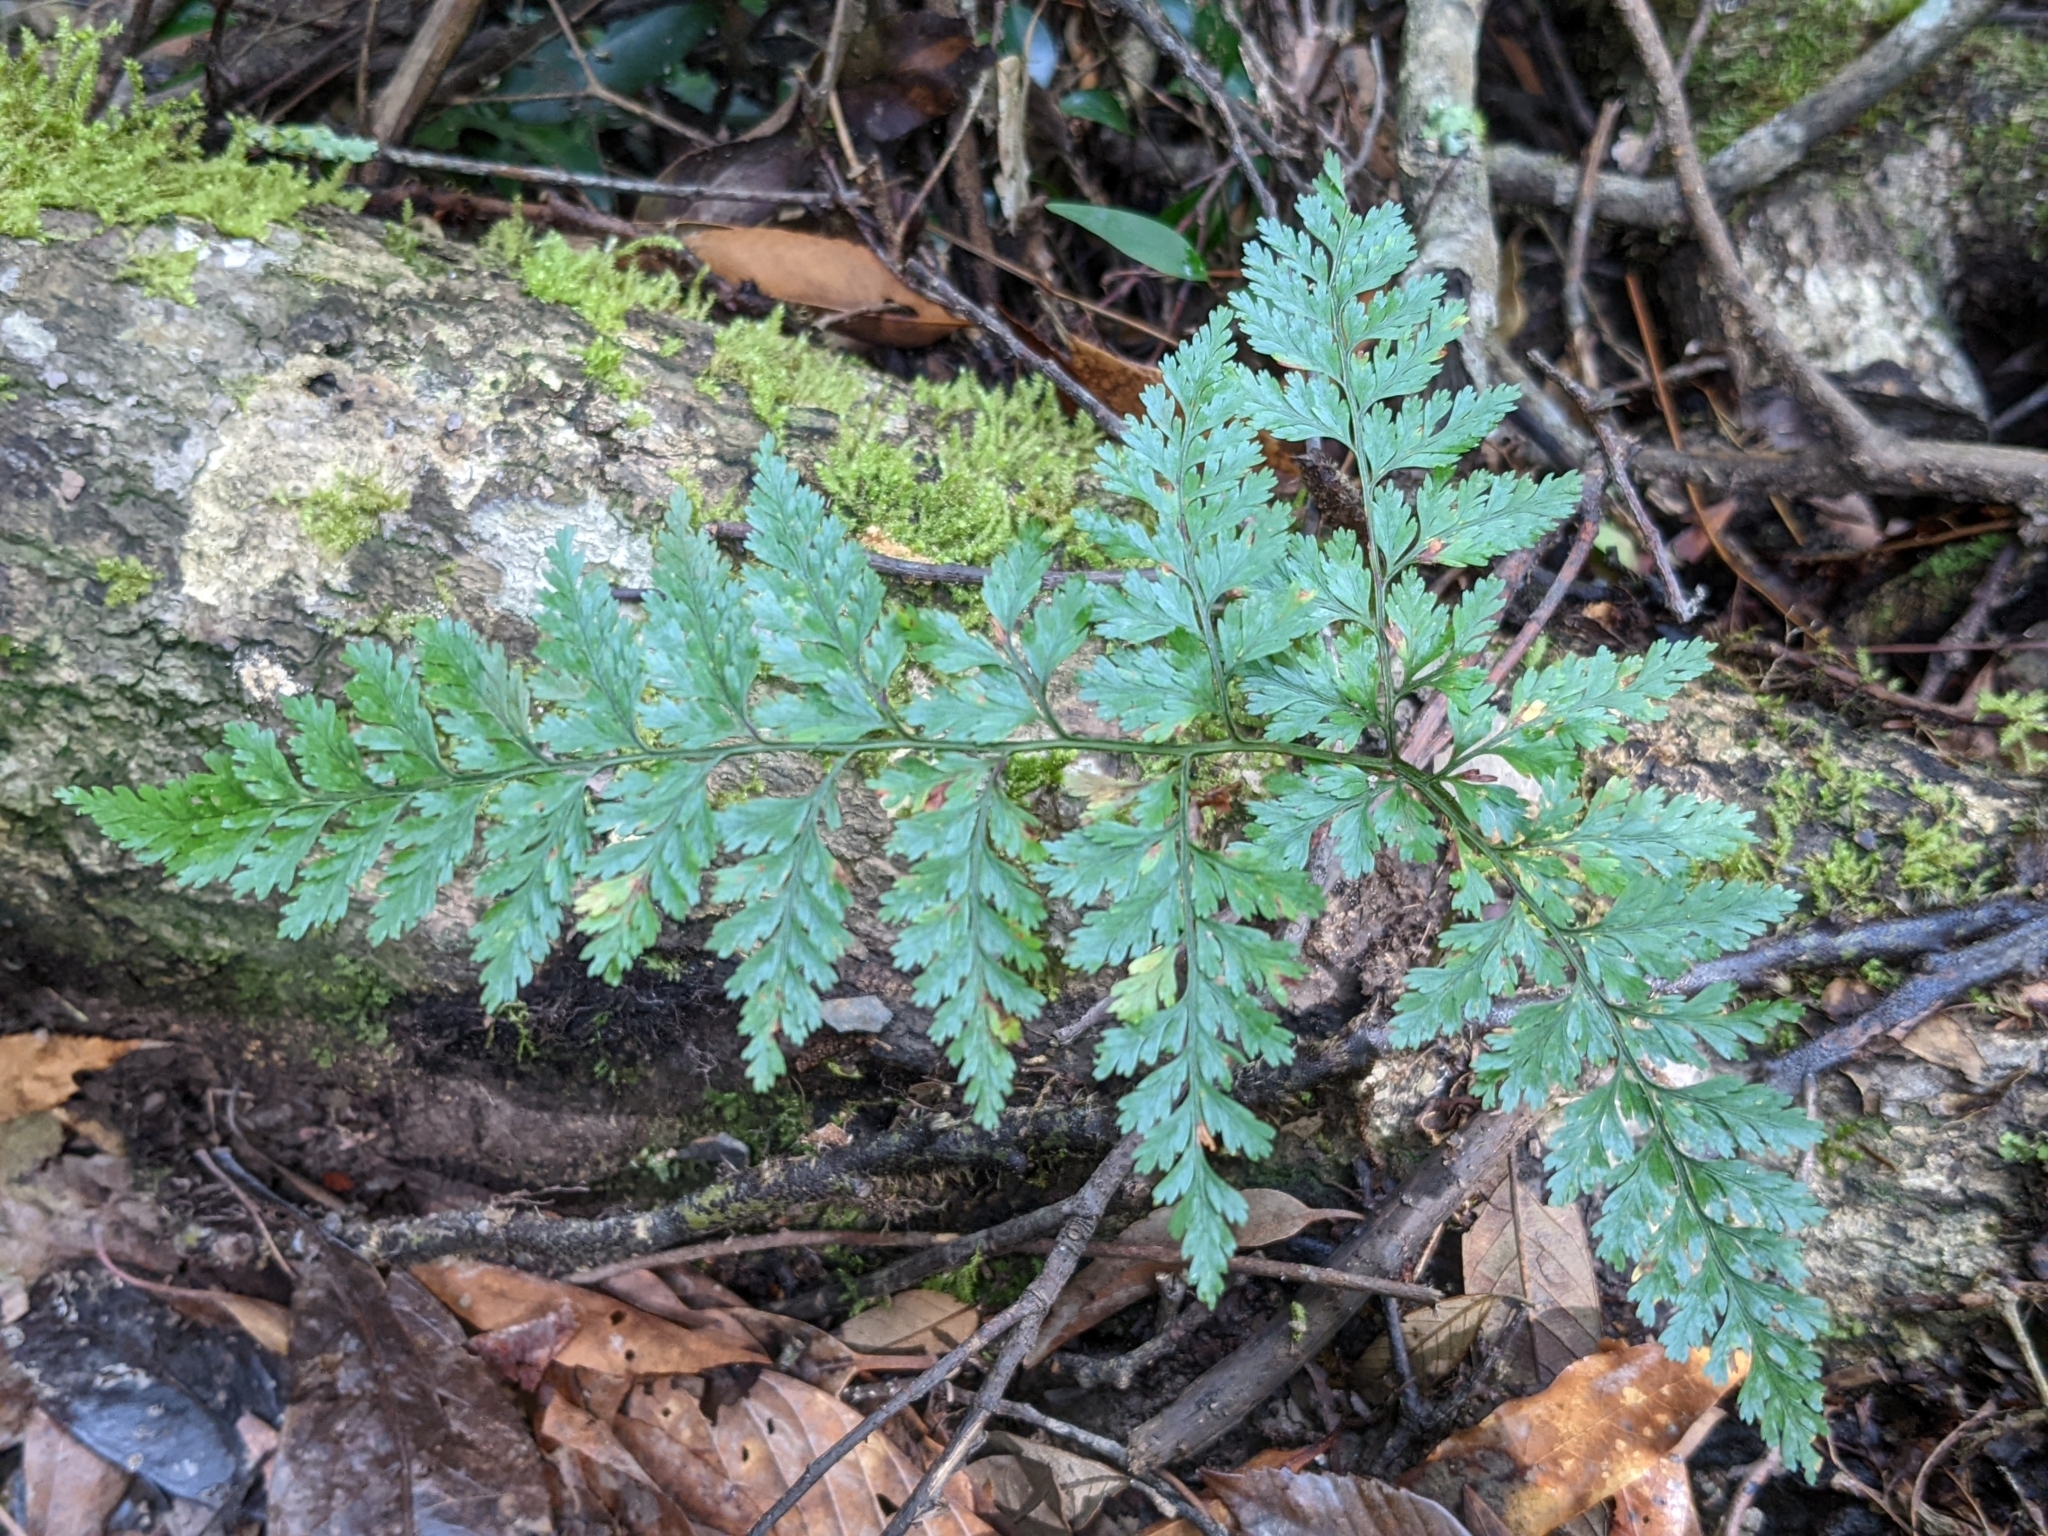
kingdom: Plantae
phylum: Tracheophyta
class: Polypodiopsida
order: Polypodiales
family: Davalliaceae
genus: Davallia
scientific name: Davallia trichomanoides
